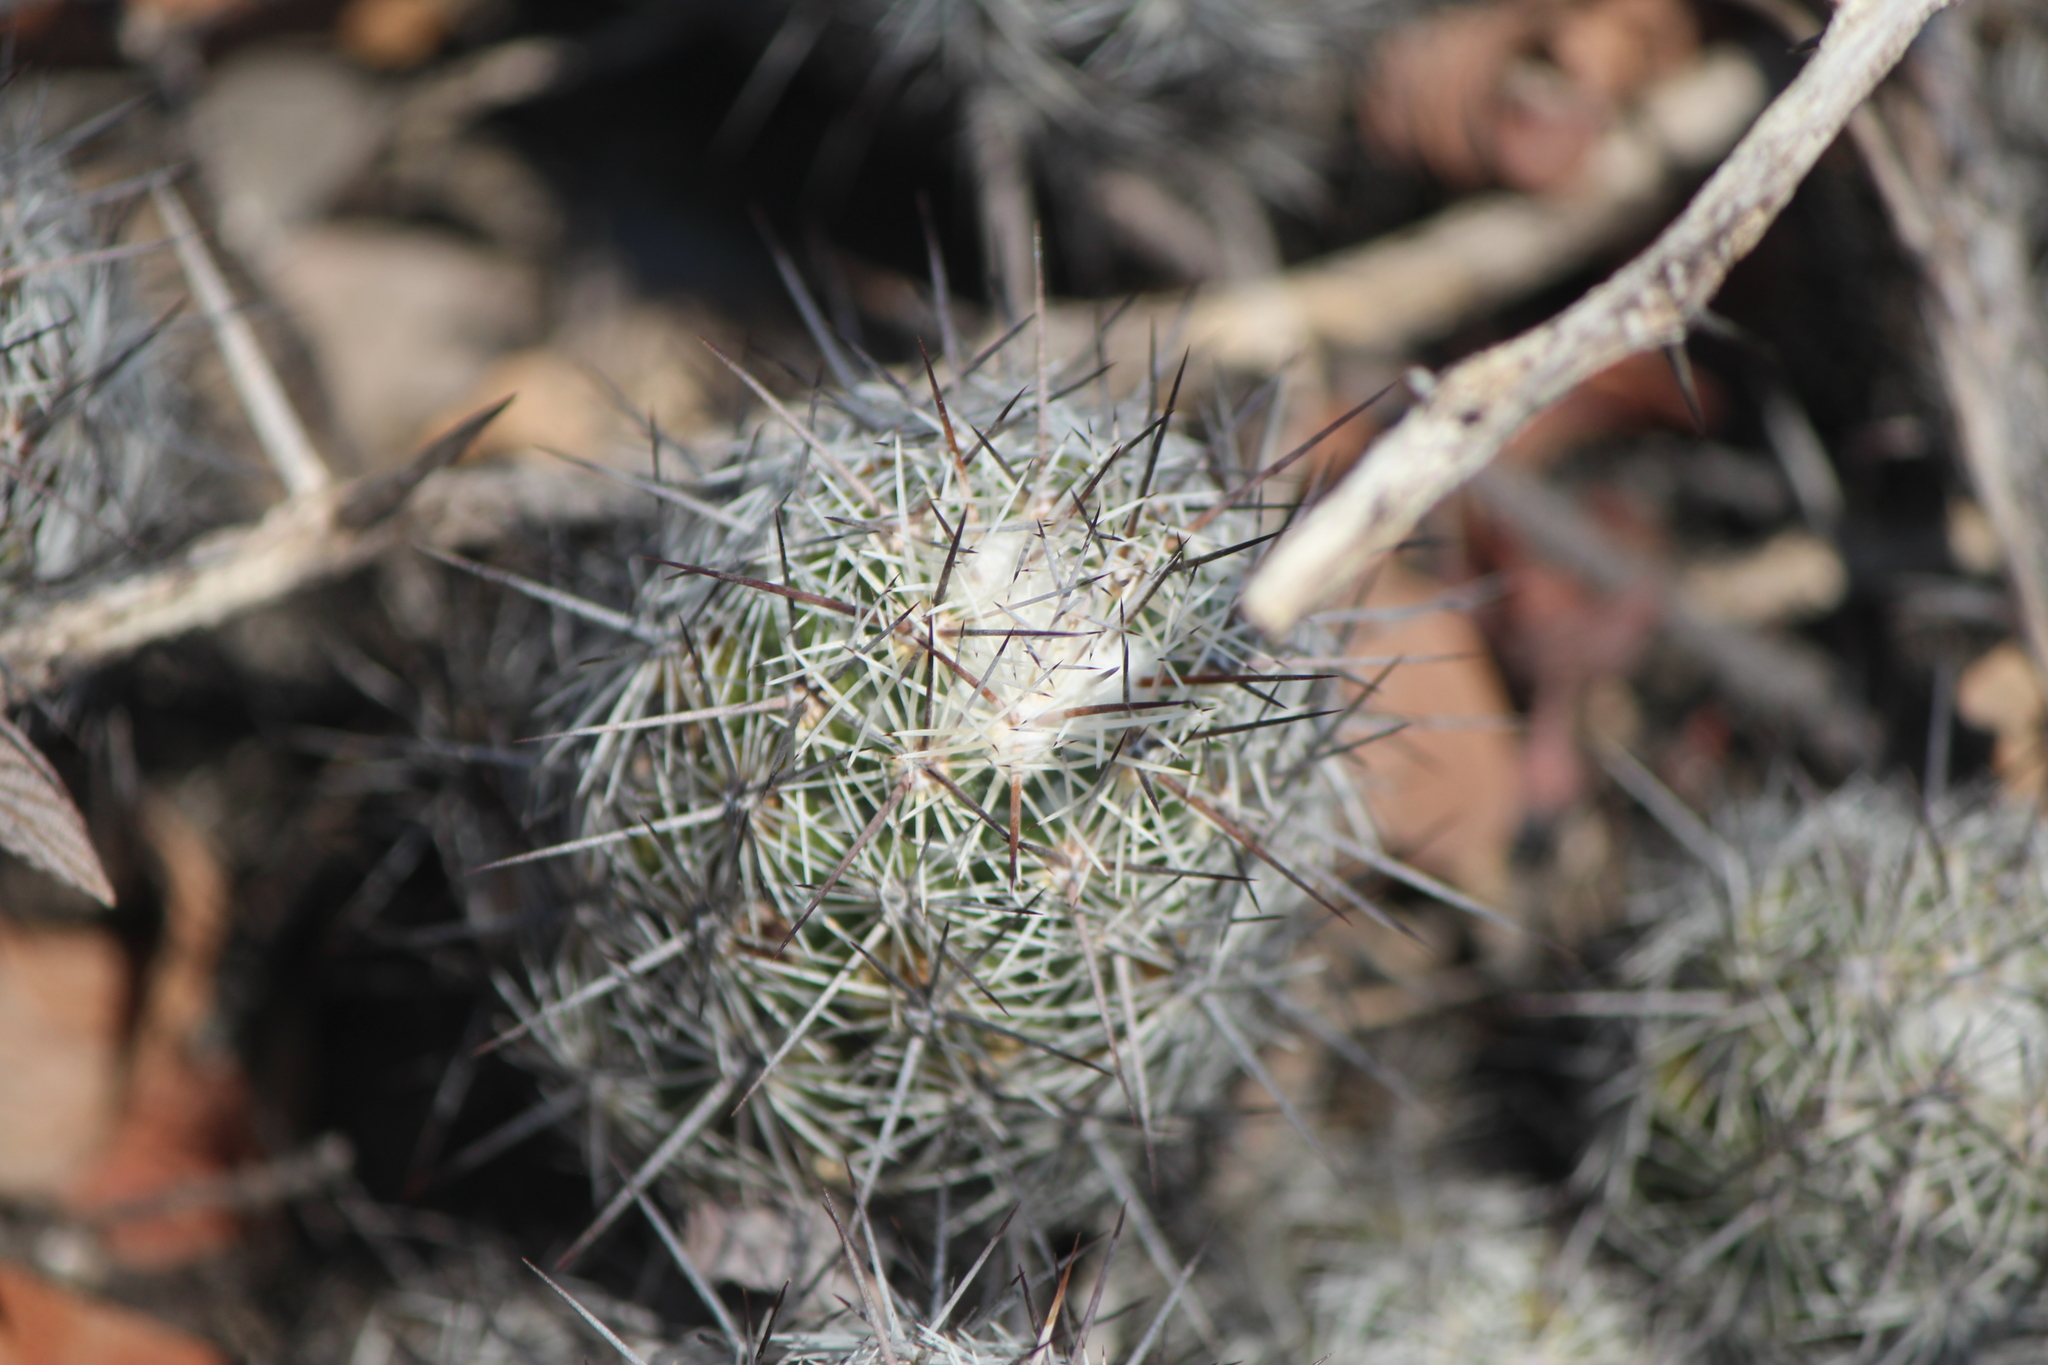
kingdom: Plantae
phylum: Tracheophyta
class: Magnoliopsida
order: Caryophyllales
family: Cactaceae
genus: Cochemiea
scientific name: Cochemiea conoidea
